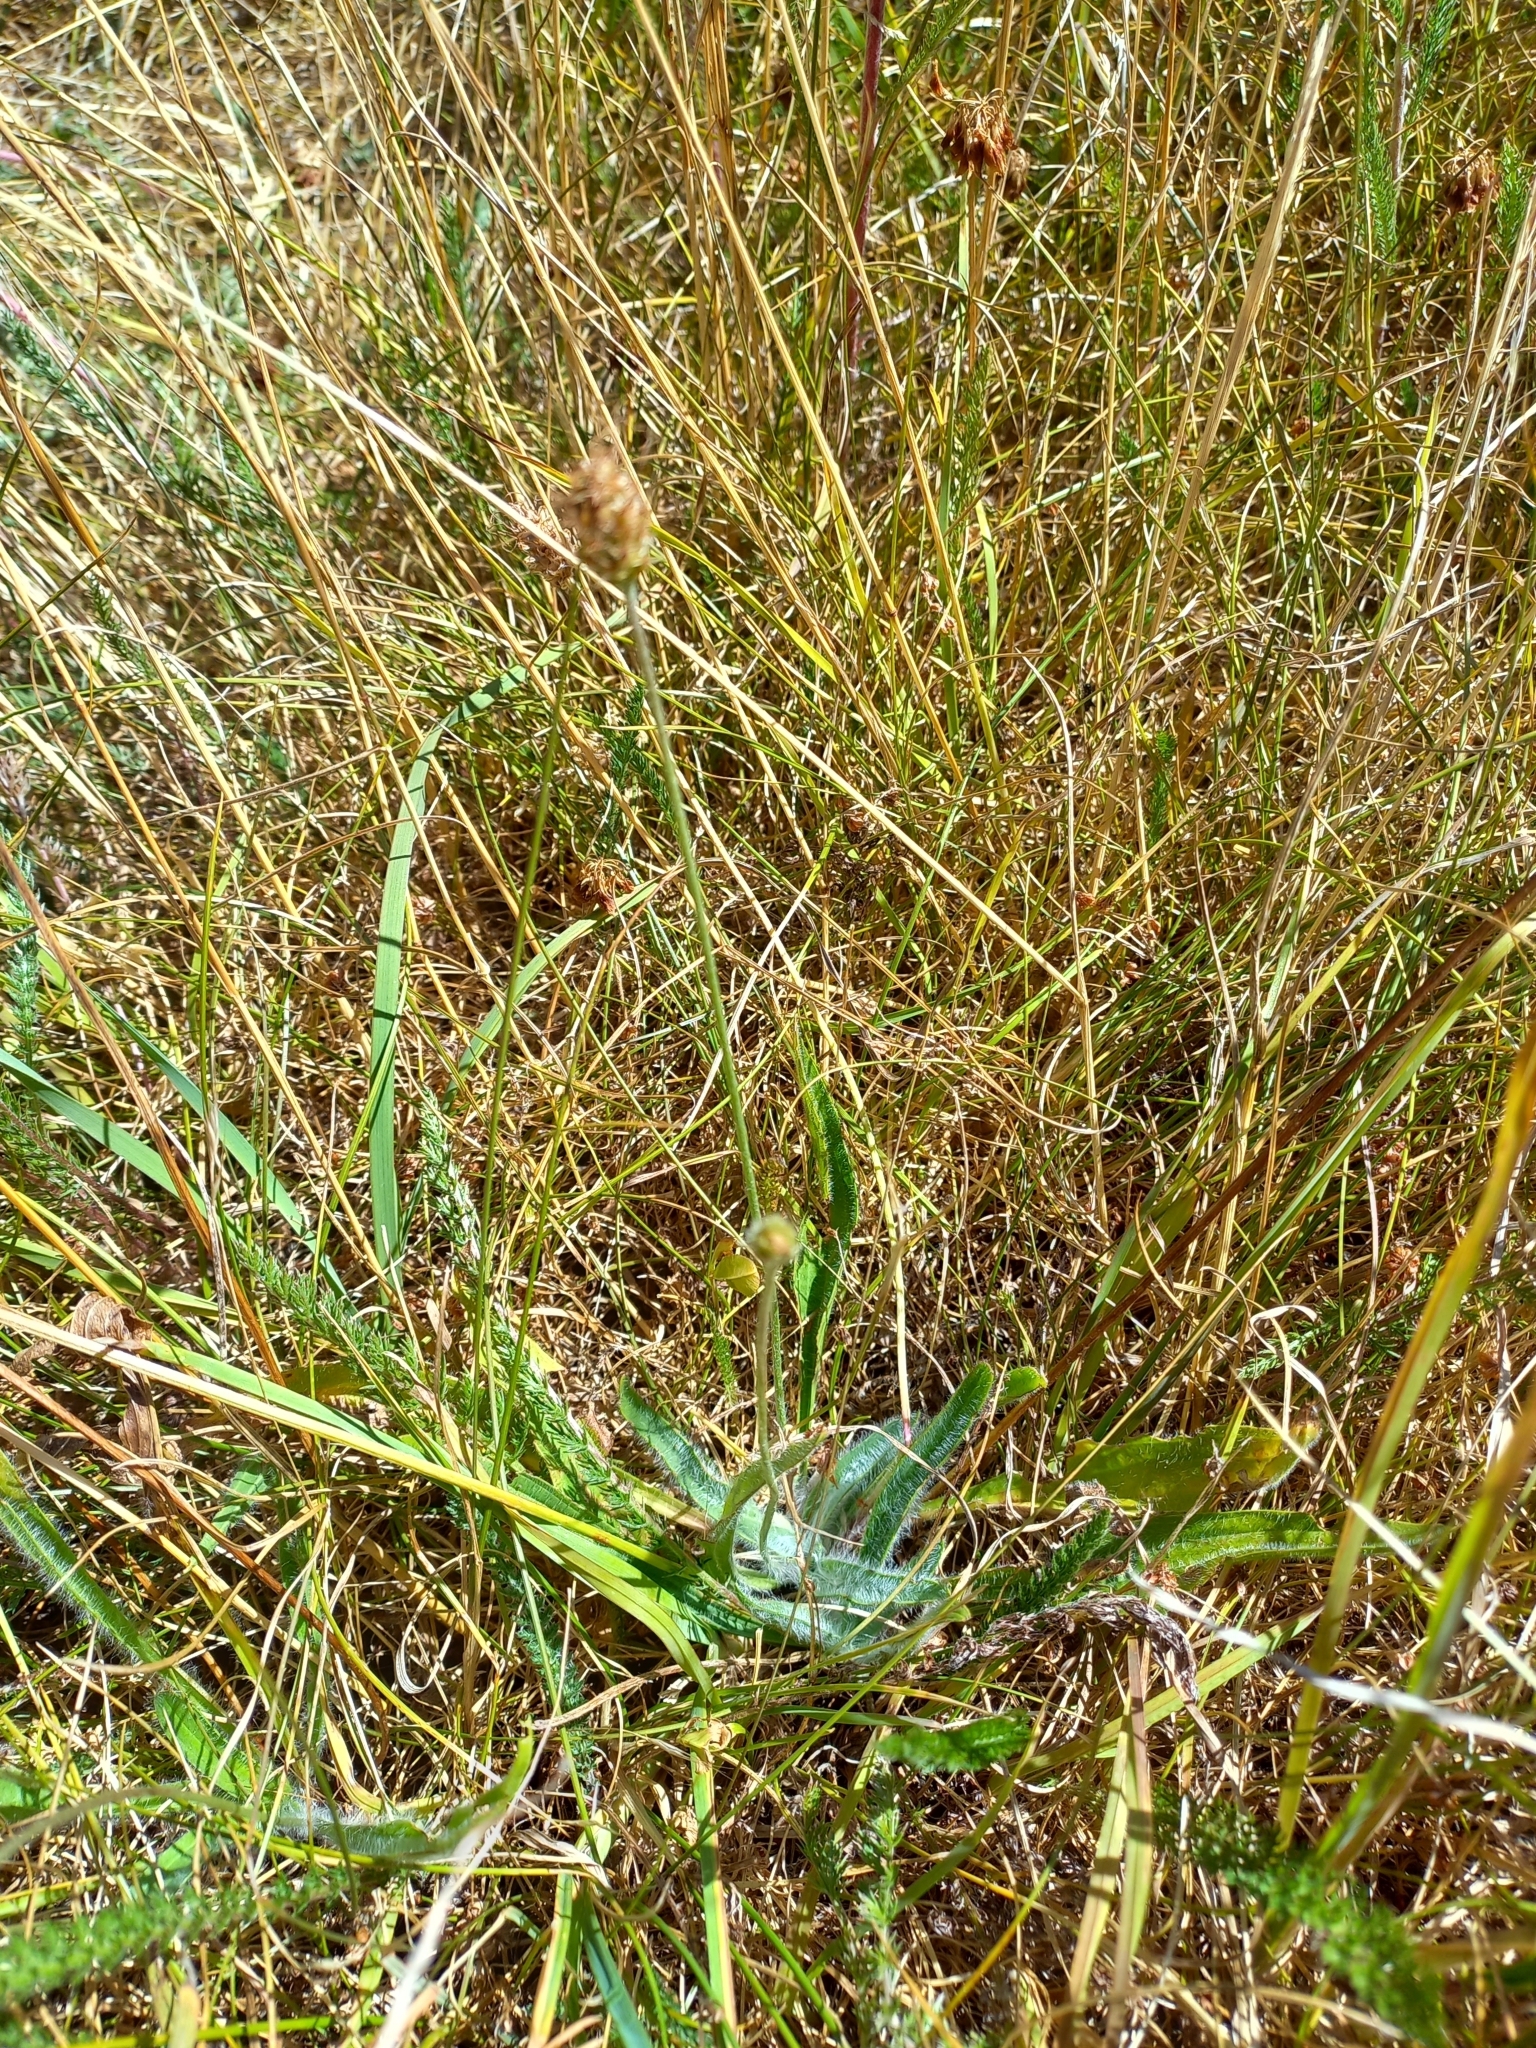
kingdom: Plantae
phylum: Tracheophyta
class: Magnoliopsida
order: Lamiales
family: Plantaginaceae
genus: Plantago
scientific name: Plantago lanceolata
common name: Ribwort plantain
